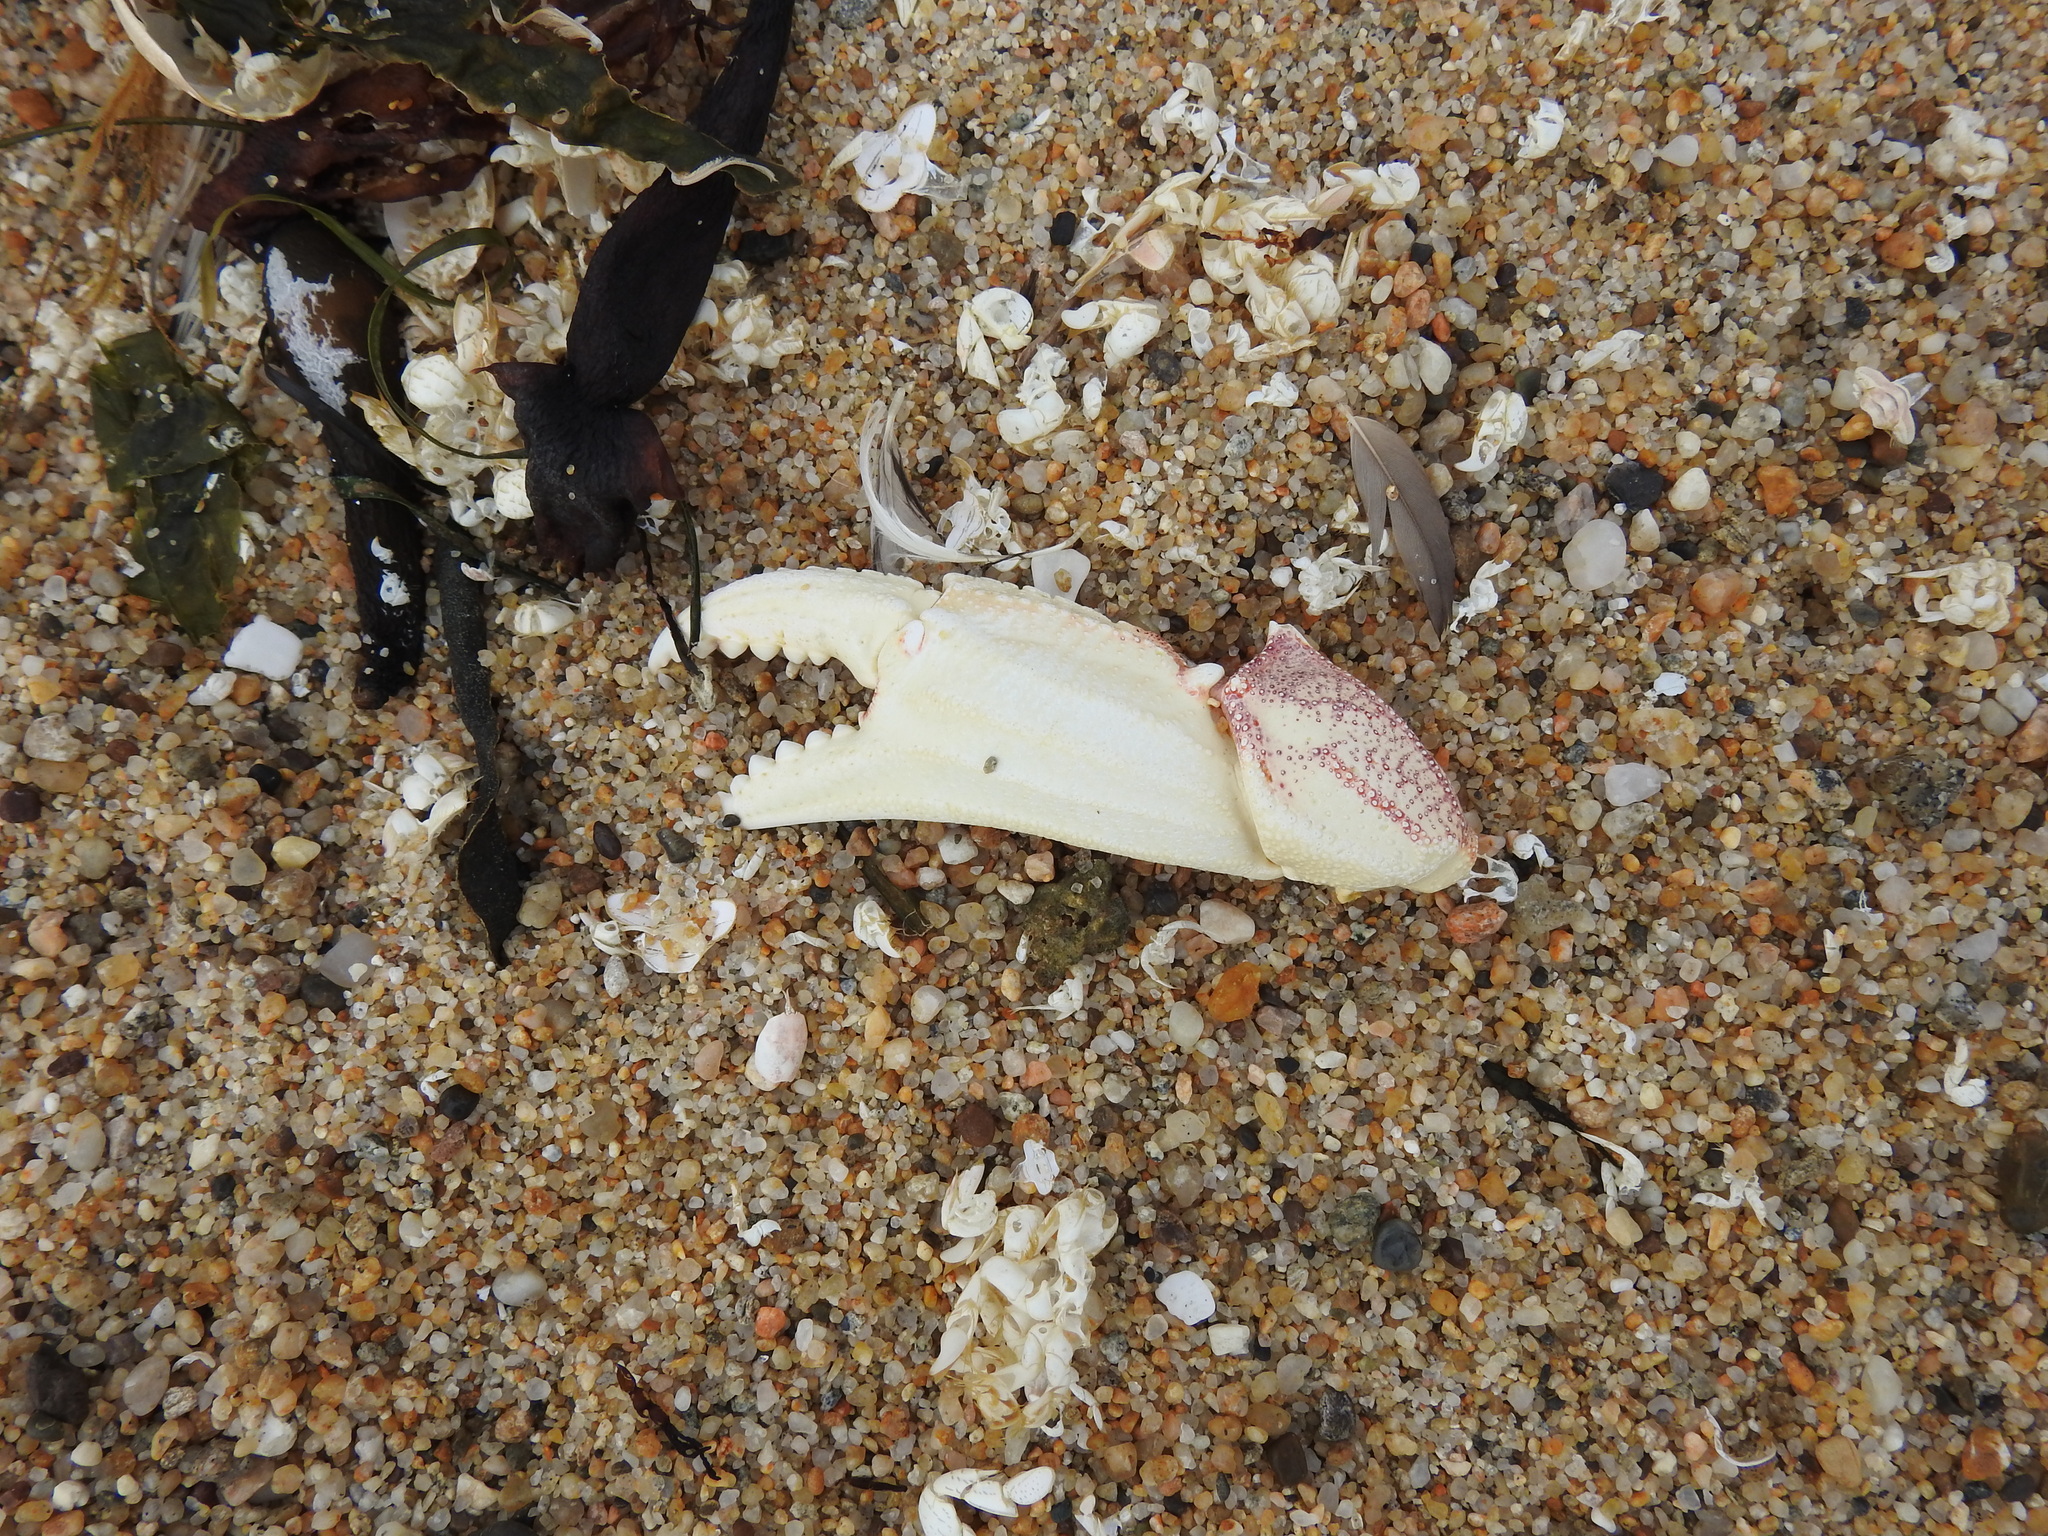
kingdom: Animalia
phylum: Arthropoda
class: Malacostraca
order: Decapoda
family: Cancridae
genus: Metacarcinus
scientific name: Metacarcinus magister
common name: Californian crab
